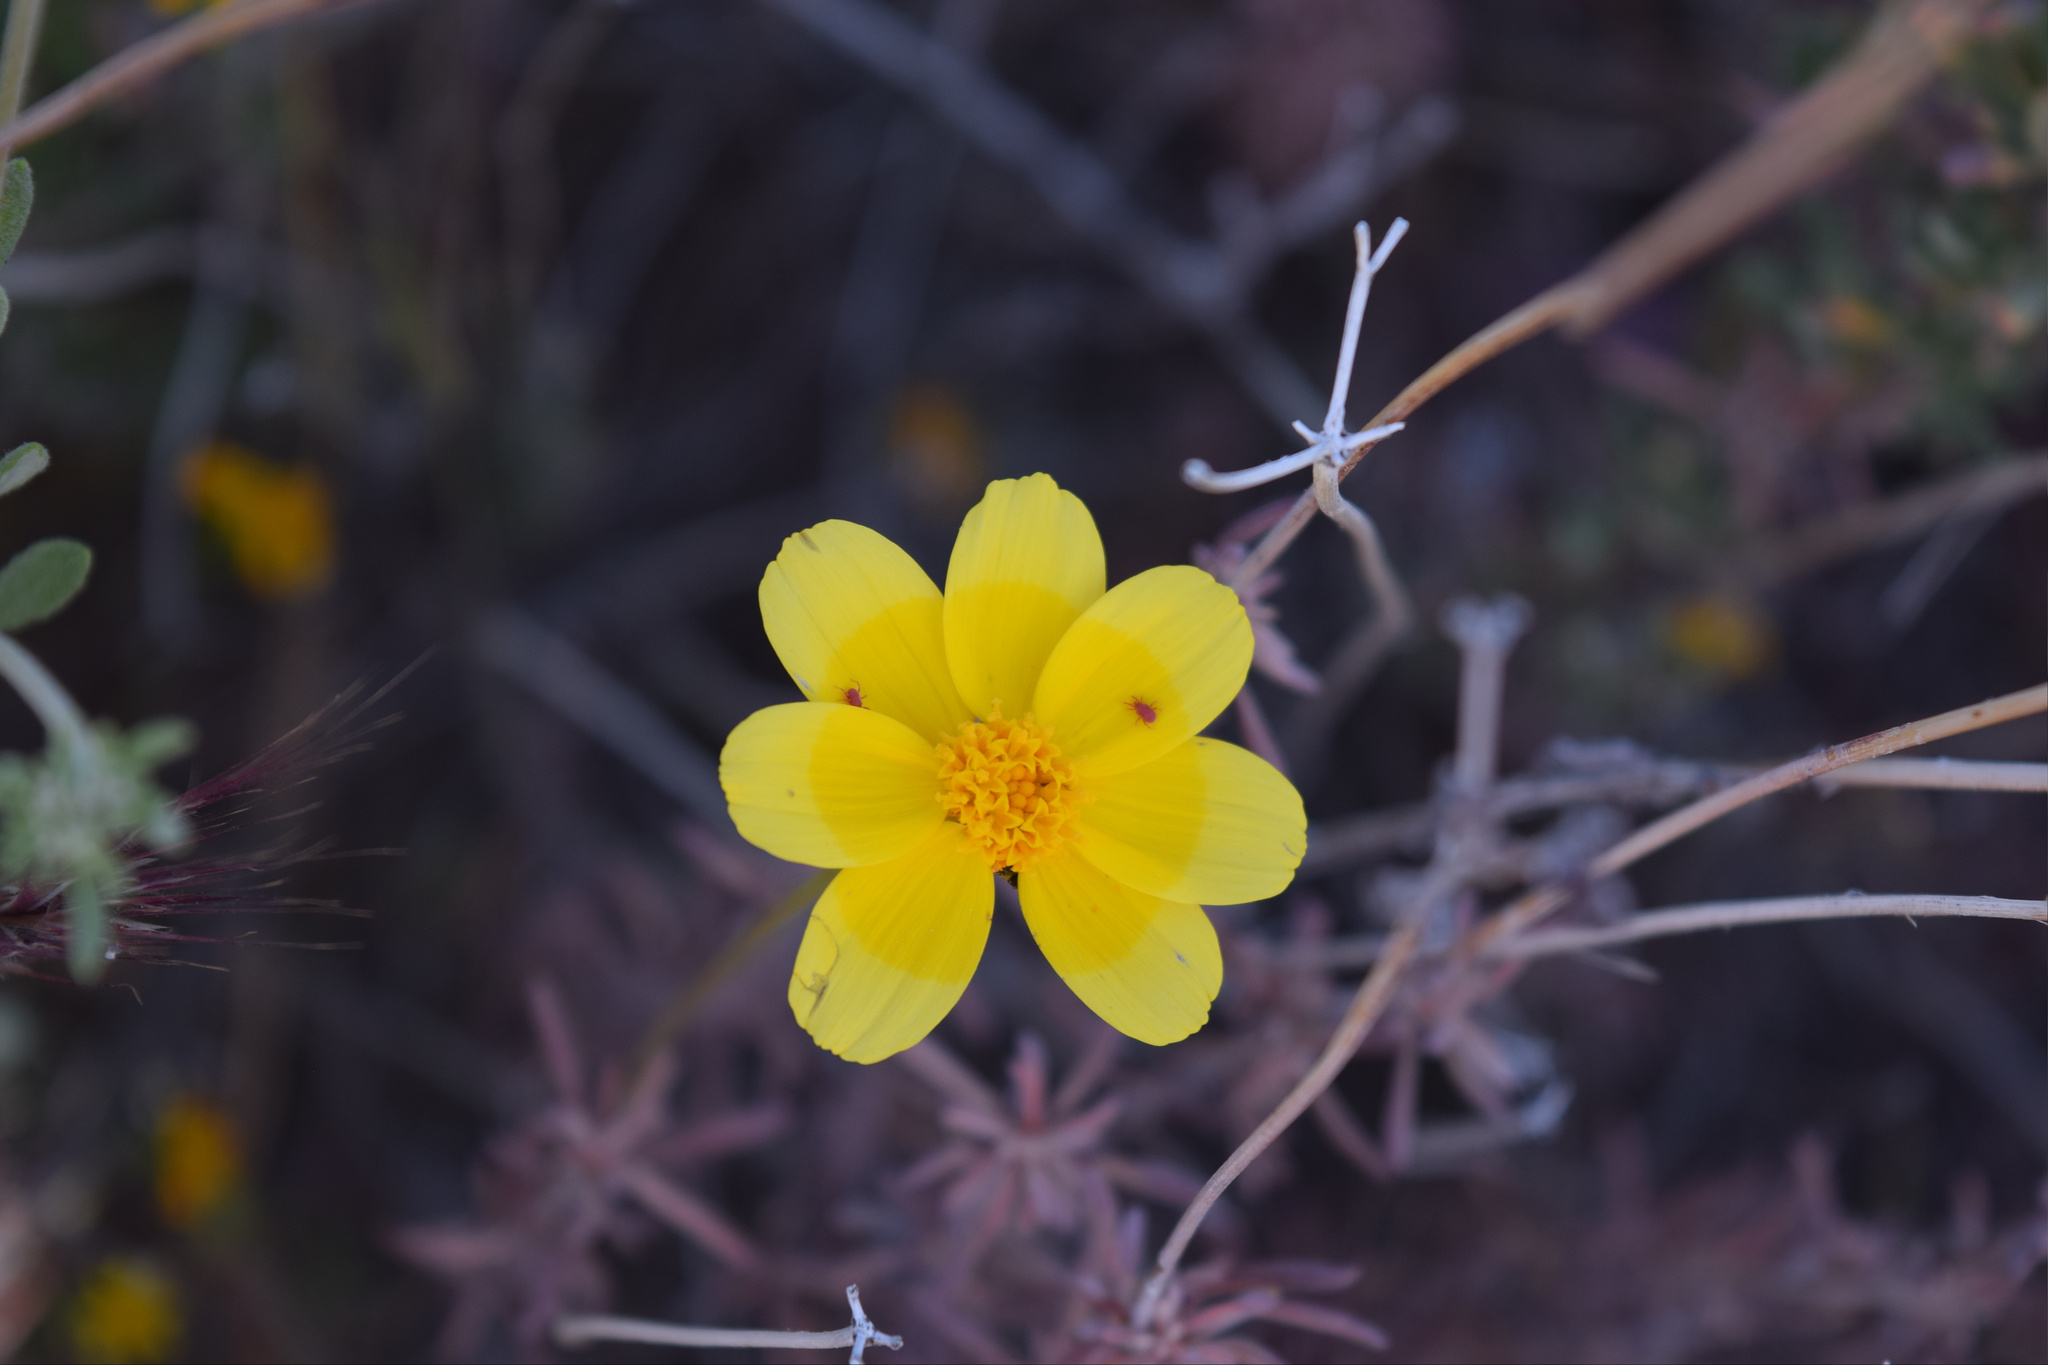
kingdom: Plantae
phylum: Tracheophyta
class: Magnoliopsida
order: Asterales
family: Asteraceae
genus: Coreopsis
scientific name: Coreopsis bigelovii
